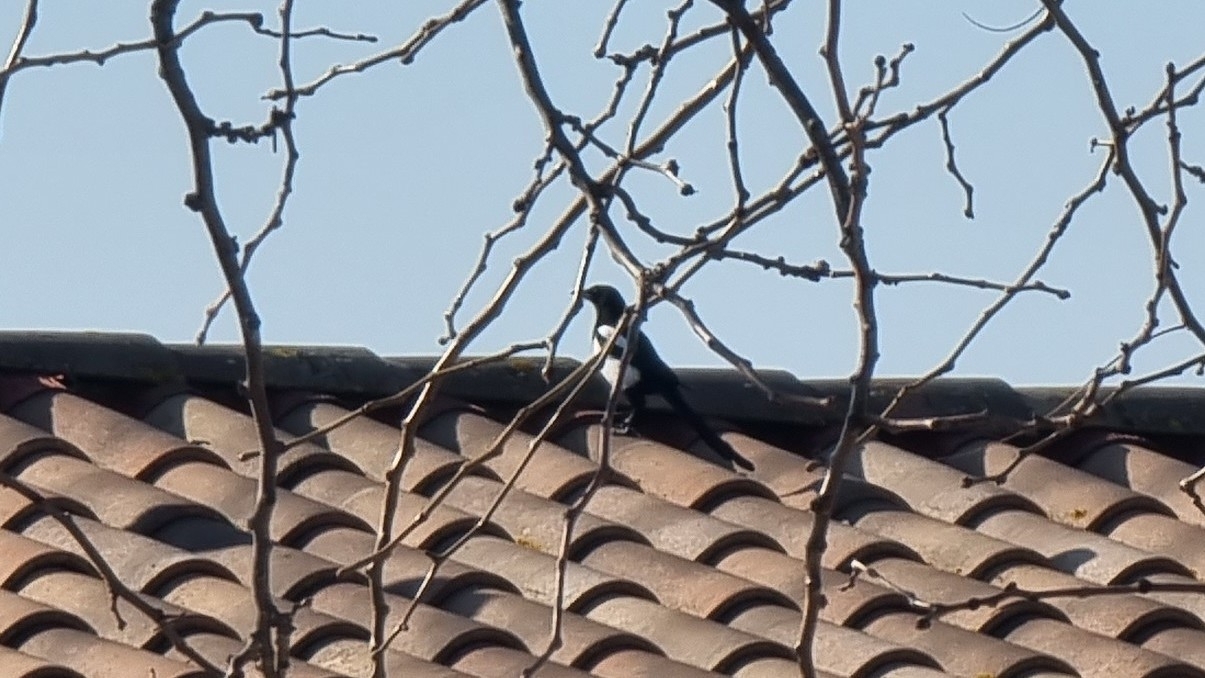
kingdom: Animalia
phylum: Chordata
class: Aves
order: Passeriformes
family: Corvidae
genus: Pica
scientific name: Pica pica
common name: Eurasian magpie
